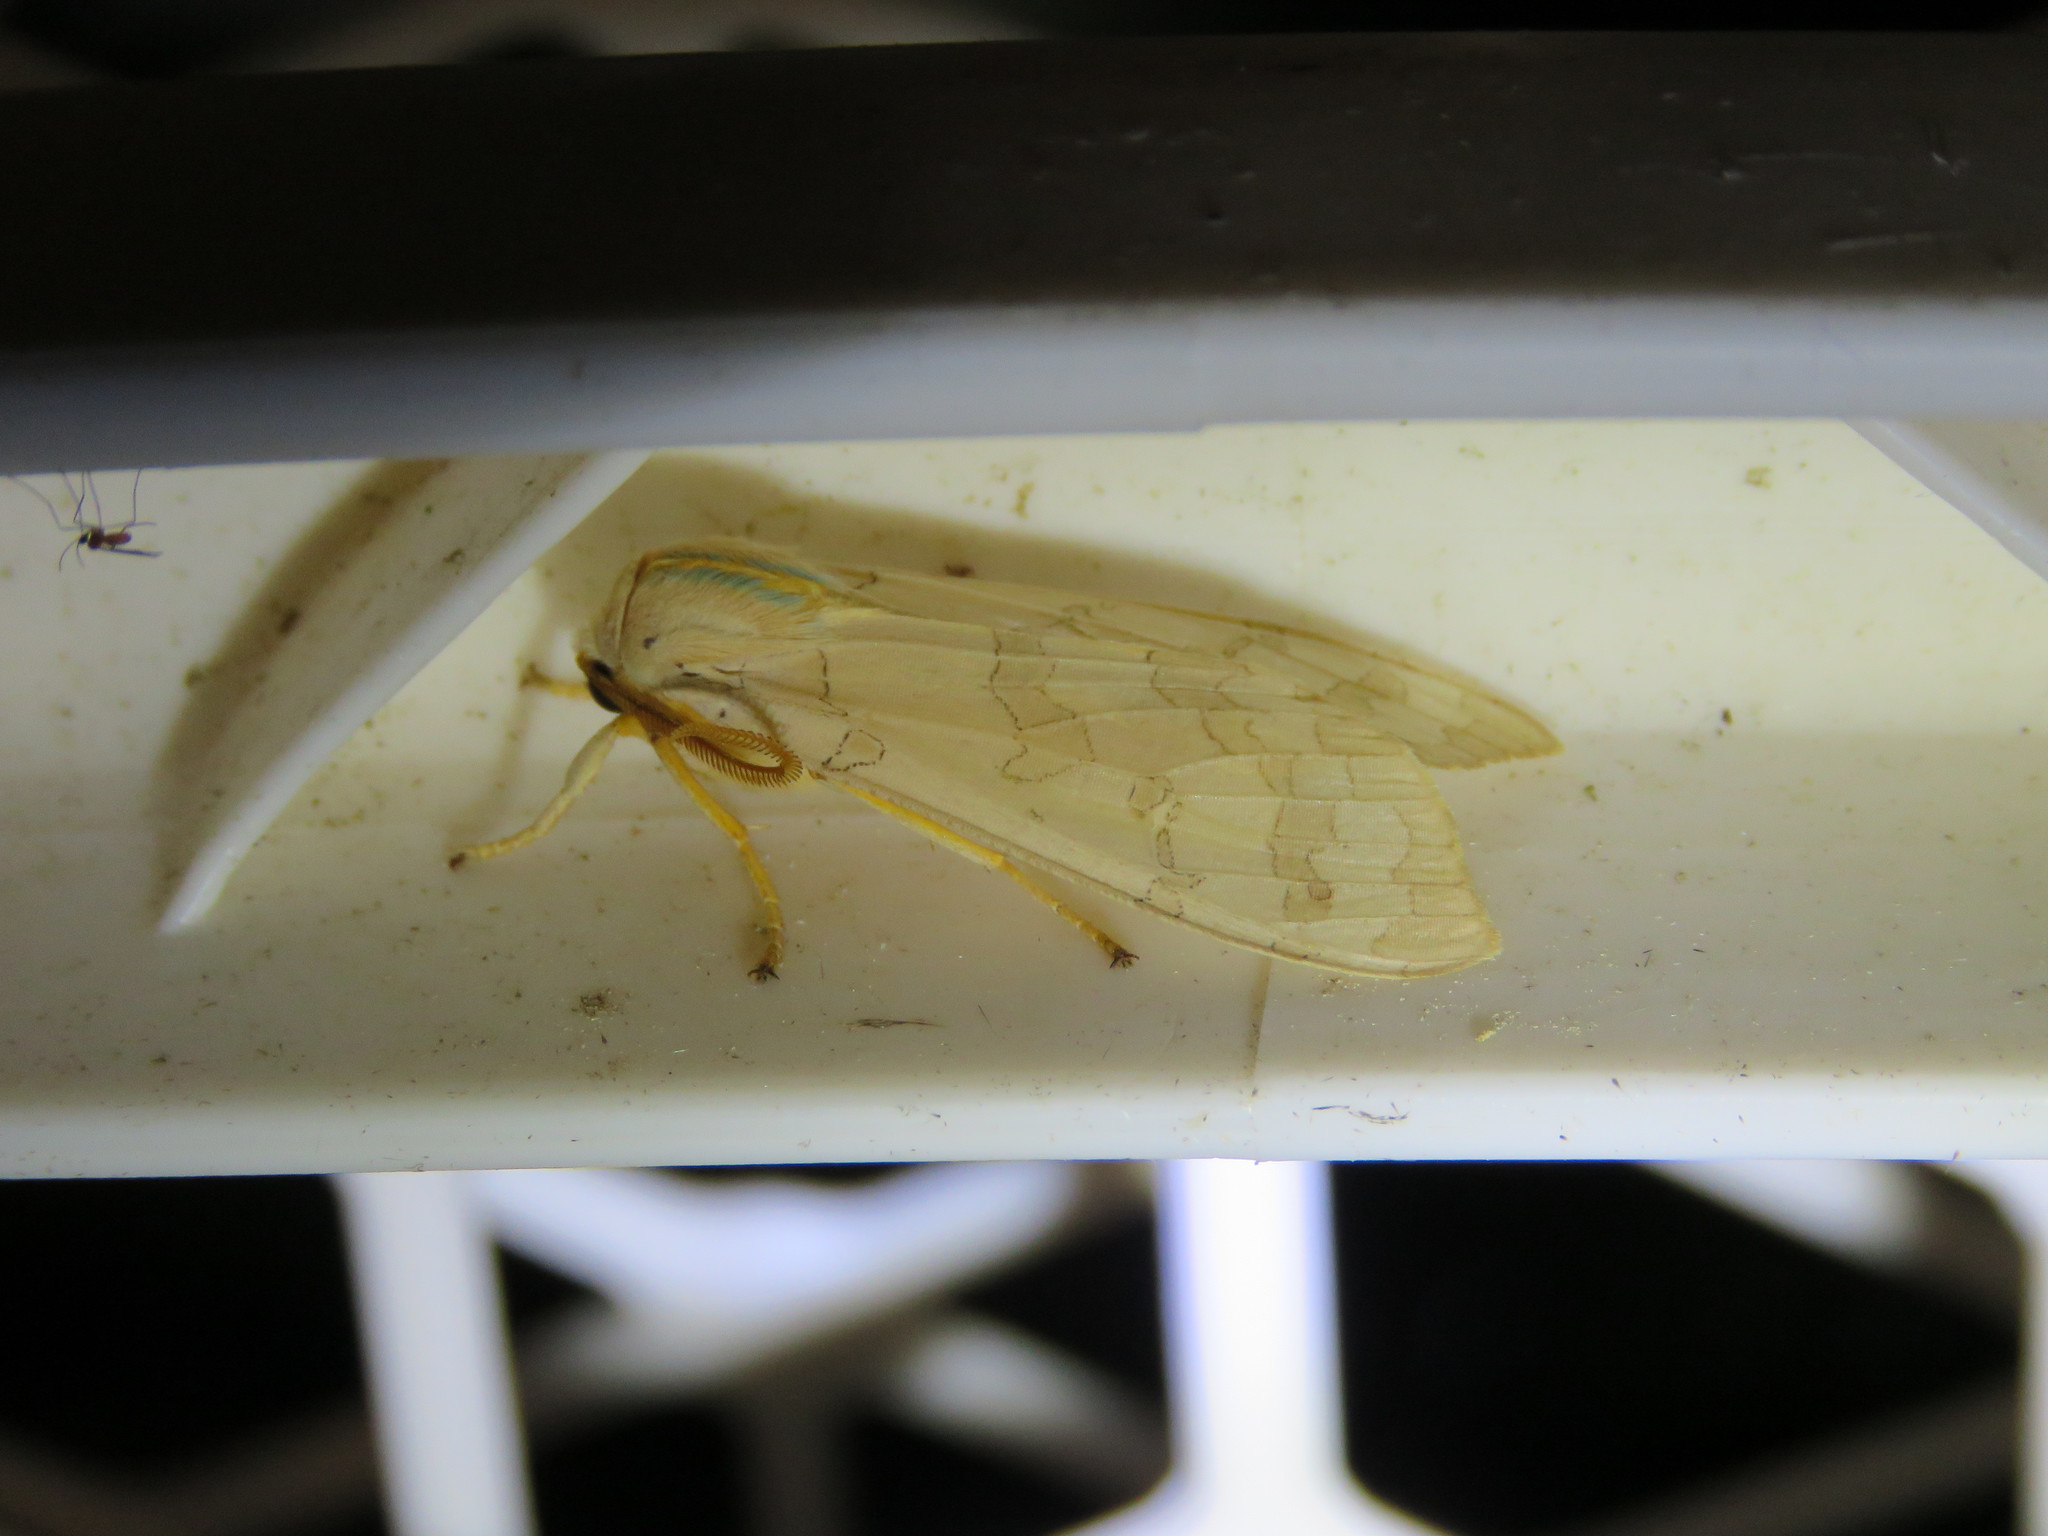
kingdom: Animalia
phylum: Arthropoda
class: Insecta
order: Lepidoptera
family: Erebidae
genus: Halysidota
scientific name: Halysidota
